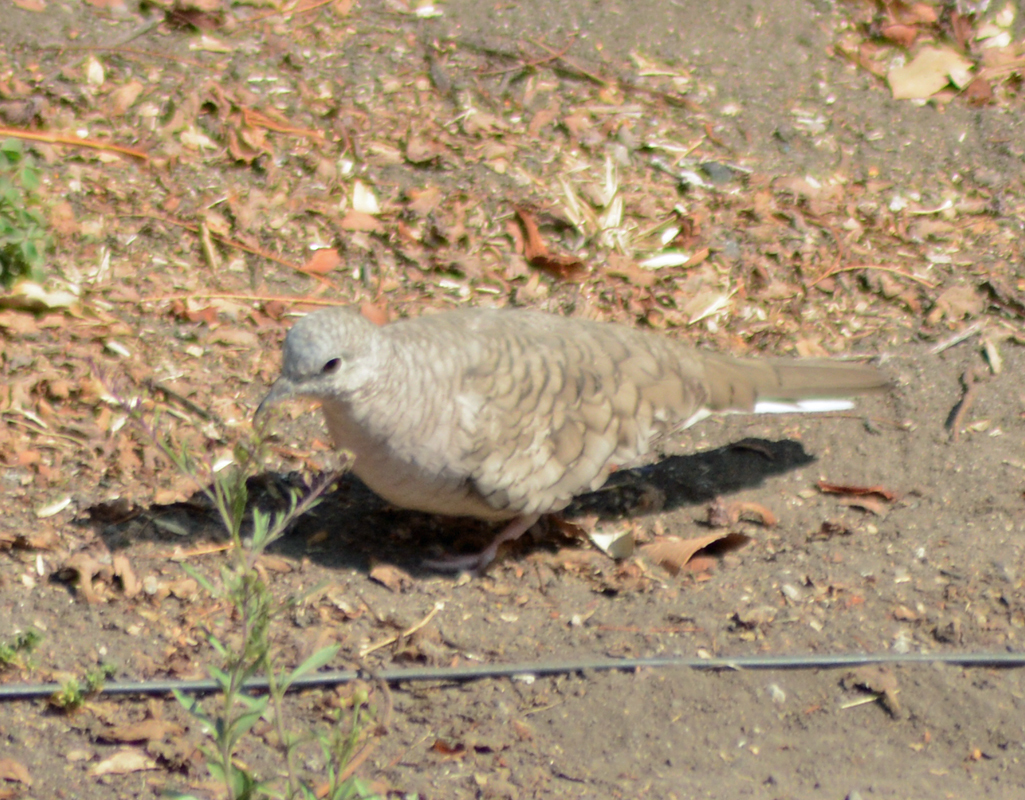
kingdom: Animalia
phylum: Chordata
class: Aves
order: Columbiformes
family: Columbidae
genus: Columbina
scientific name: Columbina inca
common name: Inca dove
